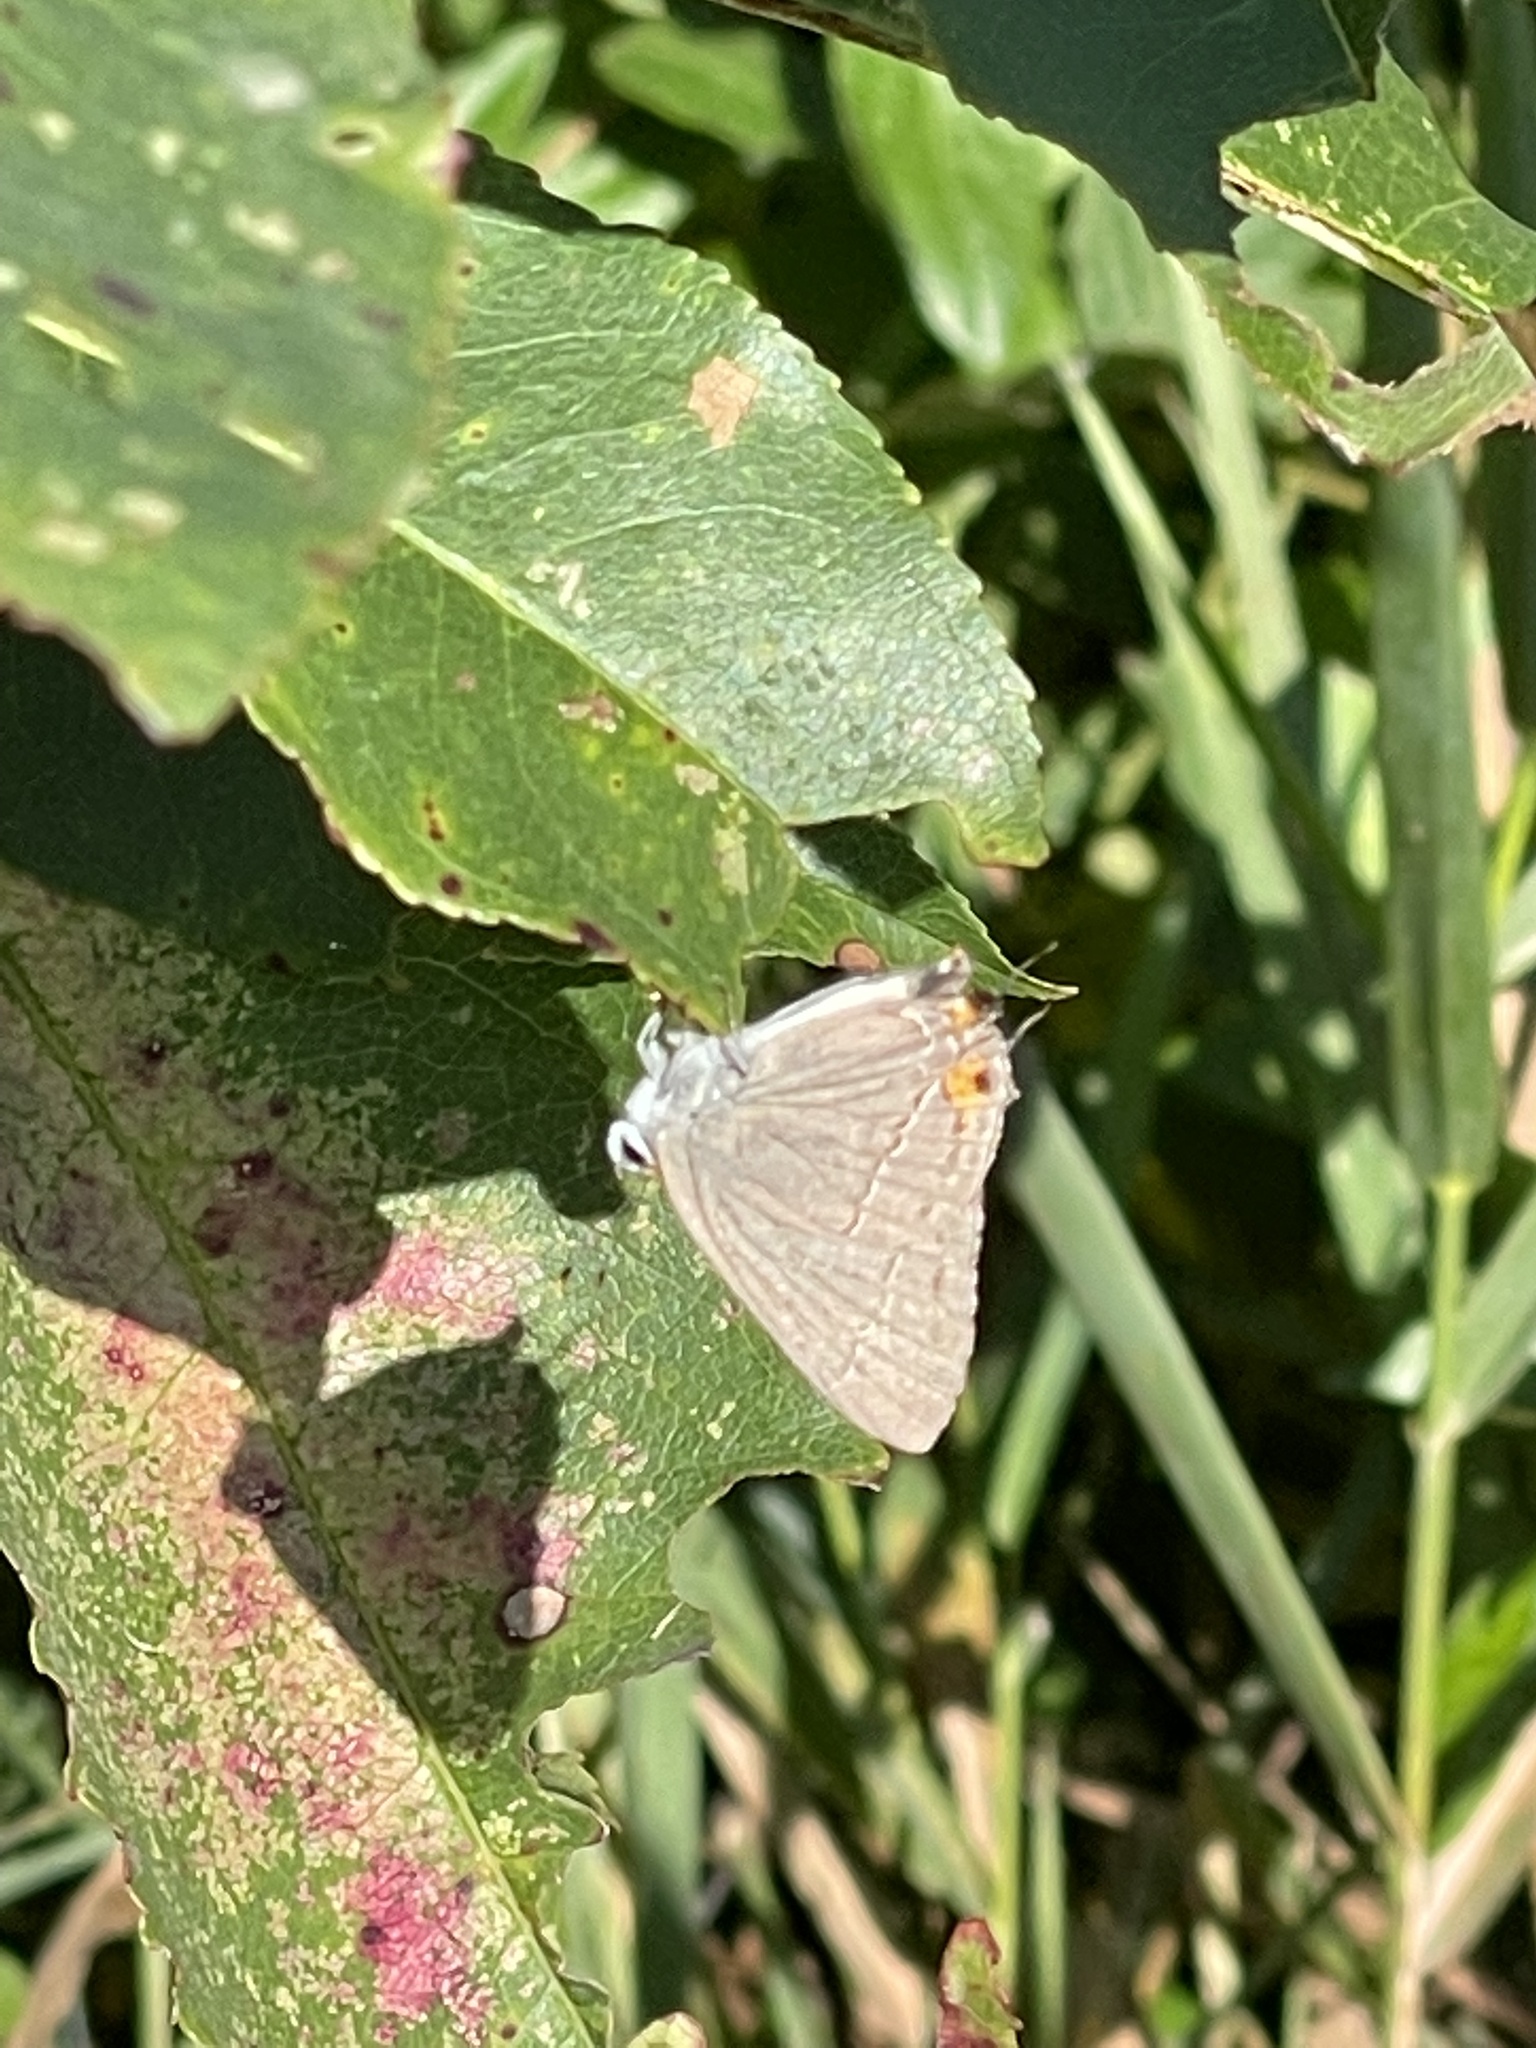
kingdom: Animalia
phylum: Arthropoda
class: Insecta
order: Lepidoptera
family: Lycaenidae
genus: Strymon
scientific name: Strymon melinus
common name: Gray hairstreak
